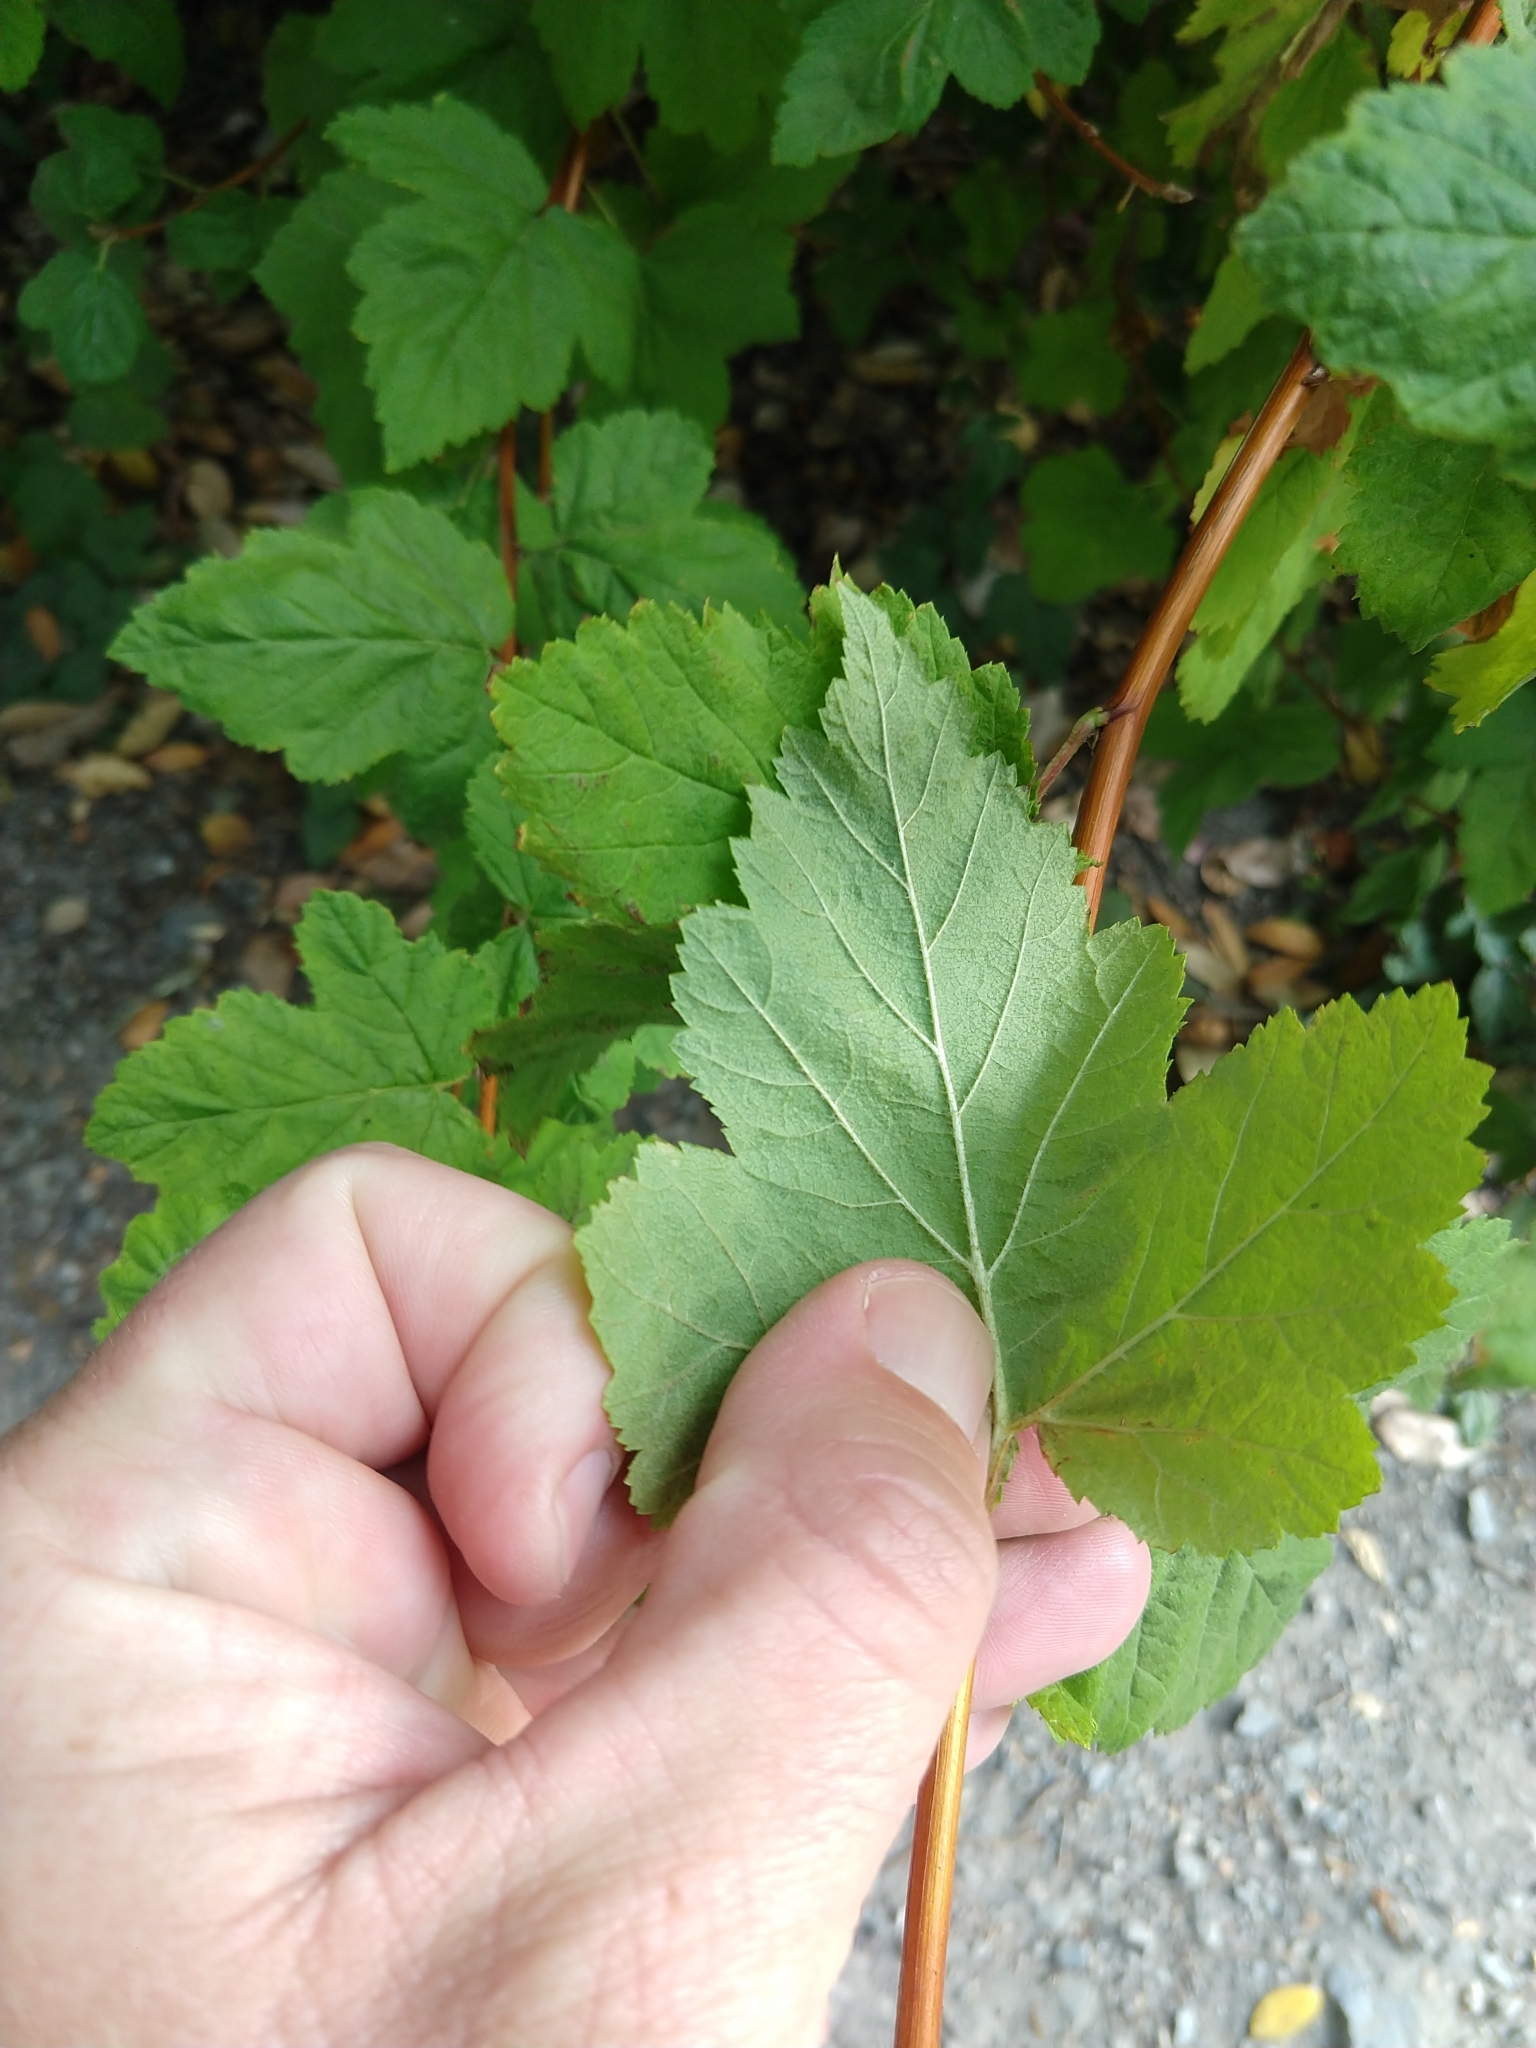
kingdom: Plantae
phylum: Tracheophyta
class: Magnoliopsida
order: Rosales
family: Rosaceae
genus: Physocarpus
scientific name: Physocarpus capitatus
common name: Pacific ninebark
